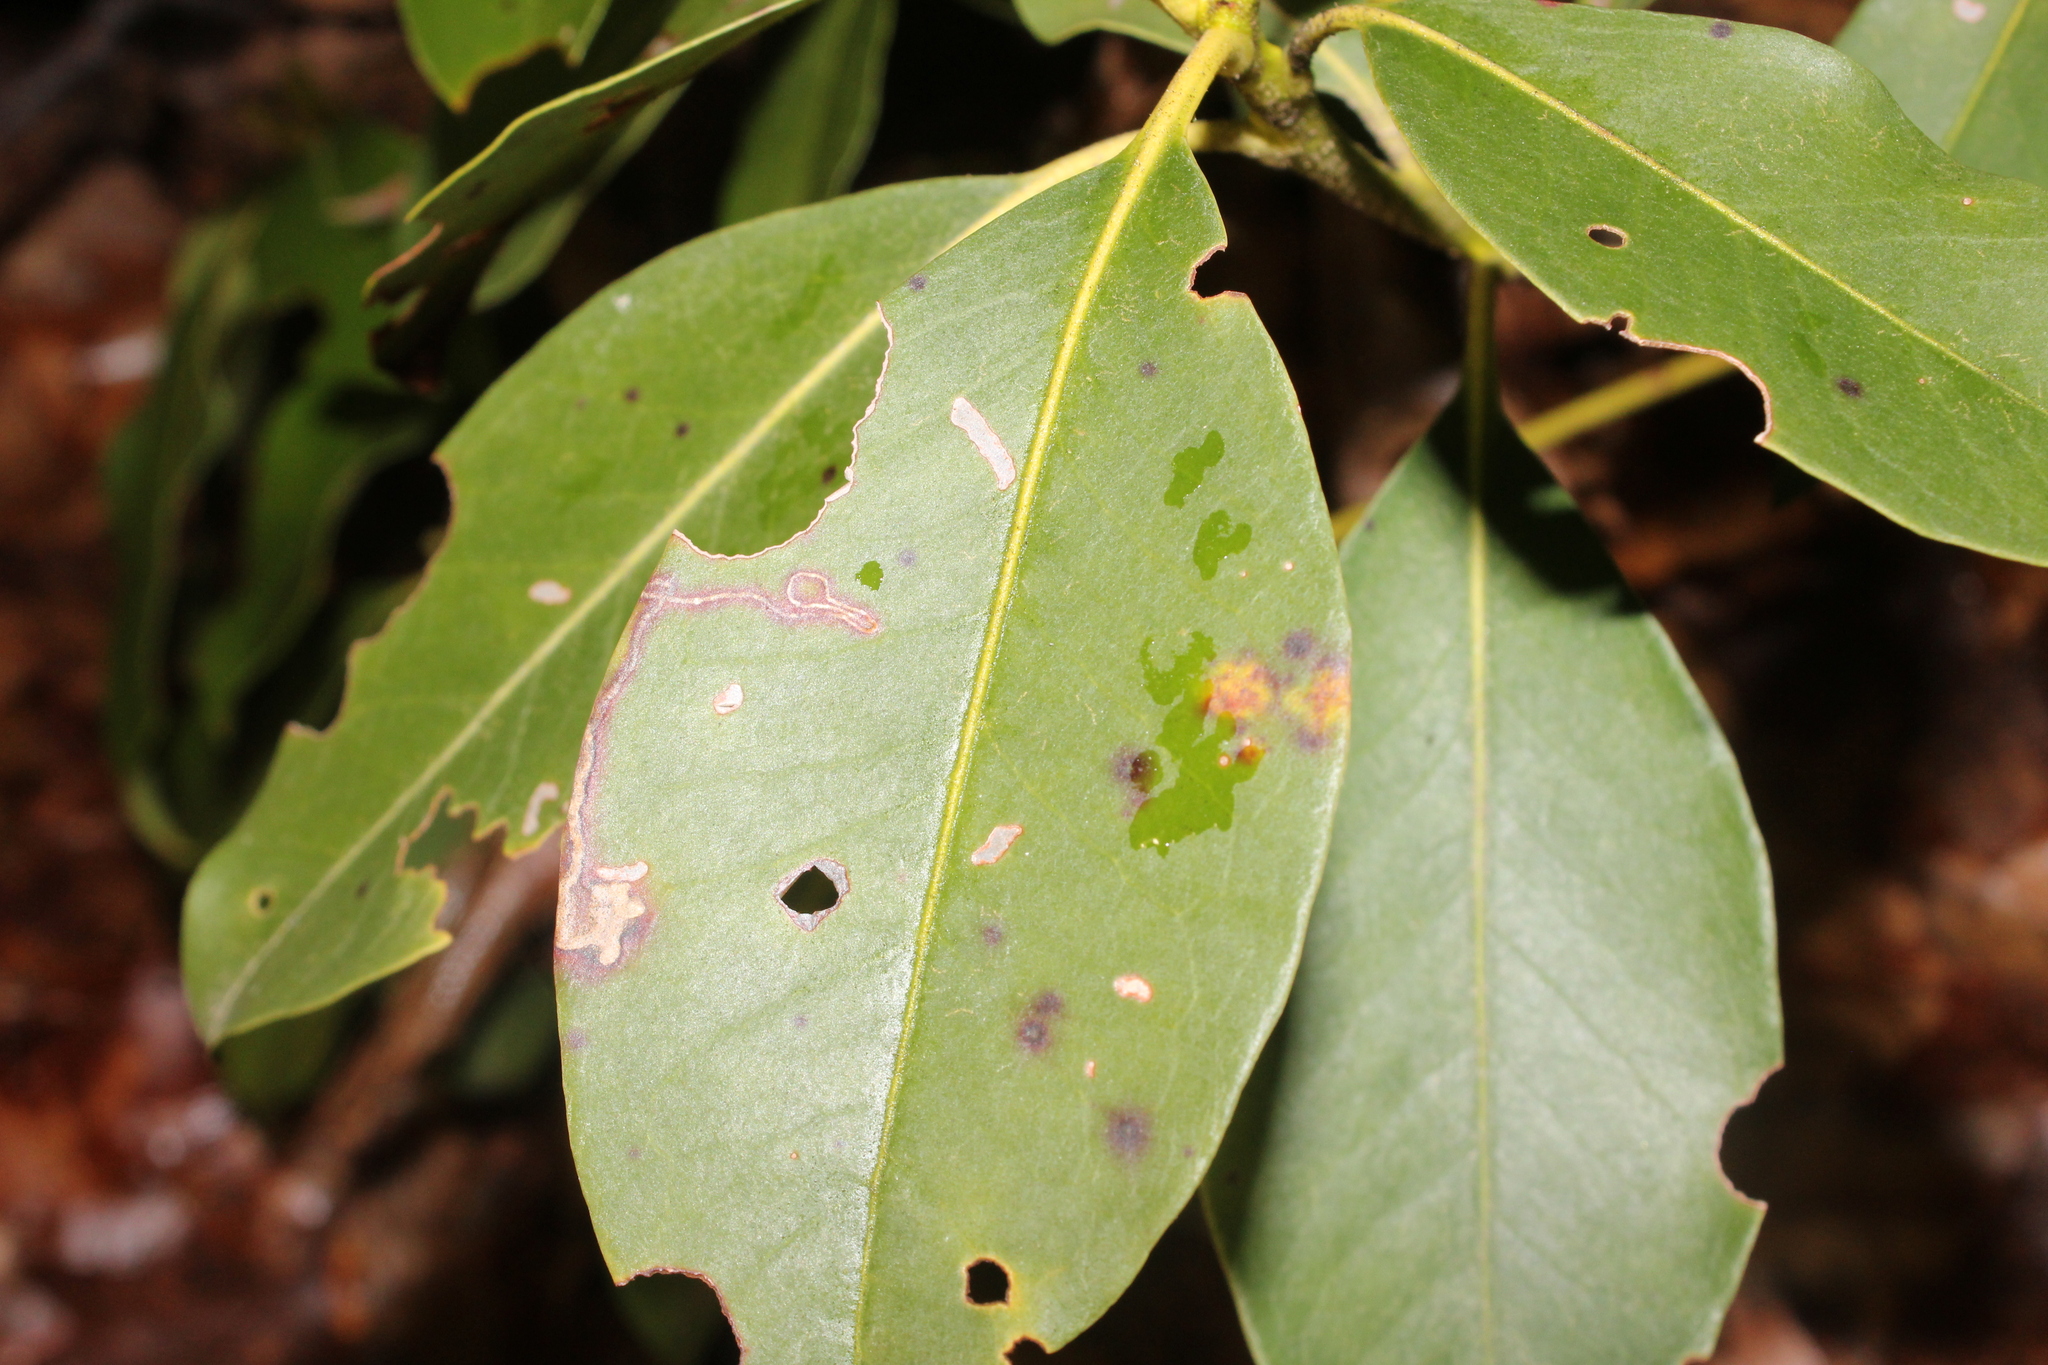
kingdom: Animalia
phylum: Arthropoda
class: Insecta
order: Lepidoptera
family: Coleophoridae
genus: Coleophora
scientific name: Coleophora kalmiella
